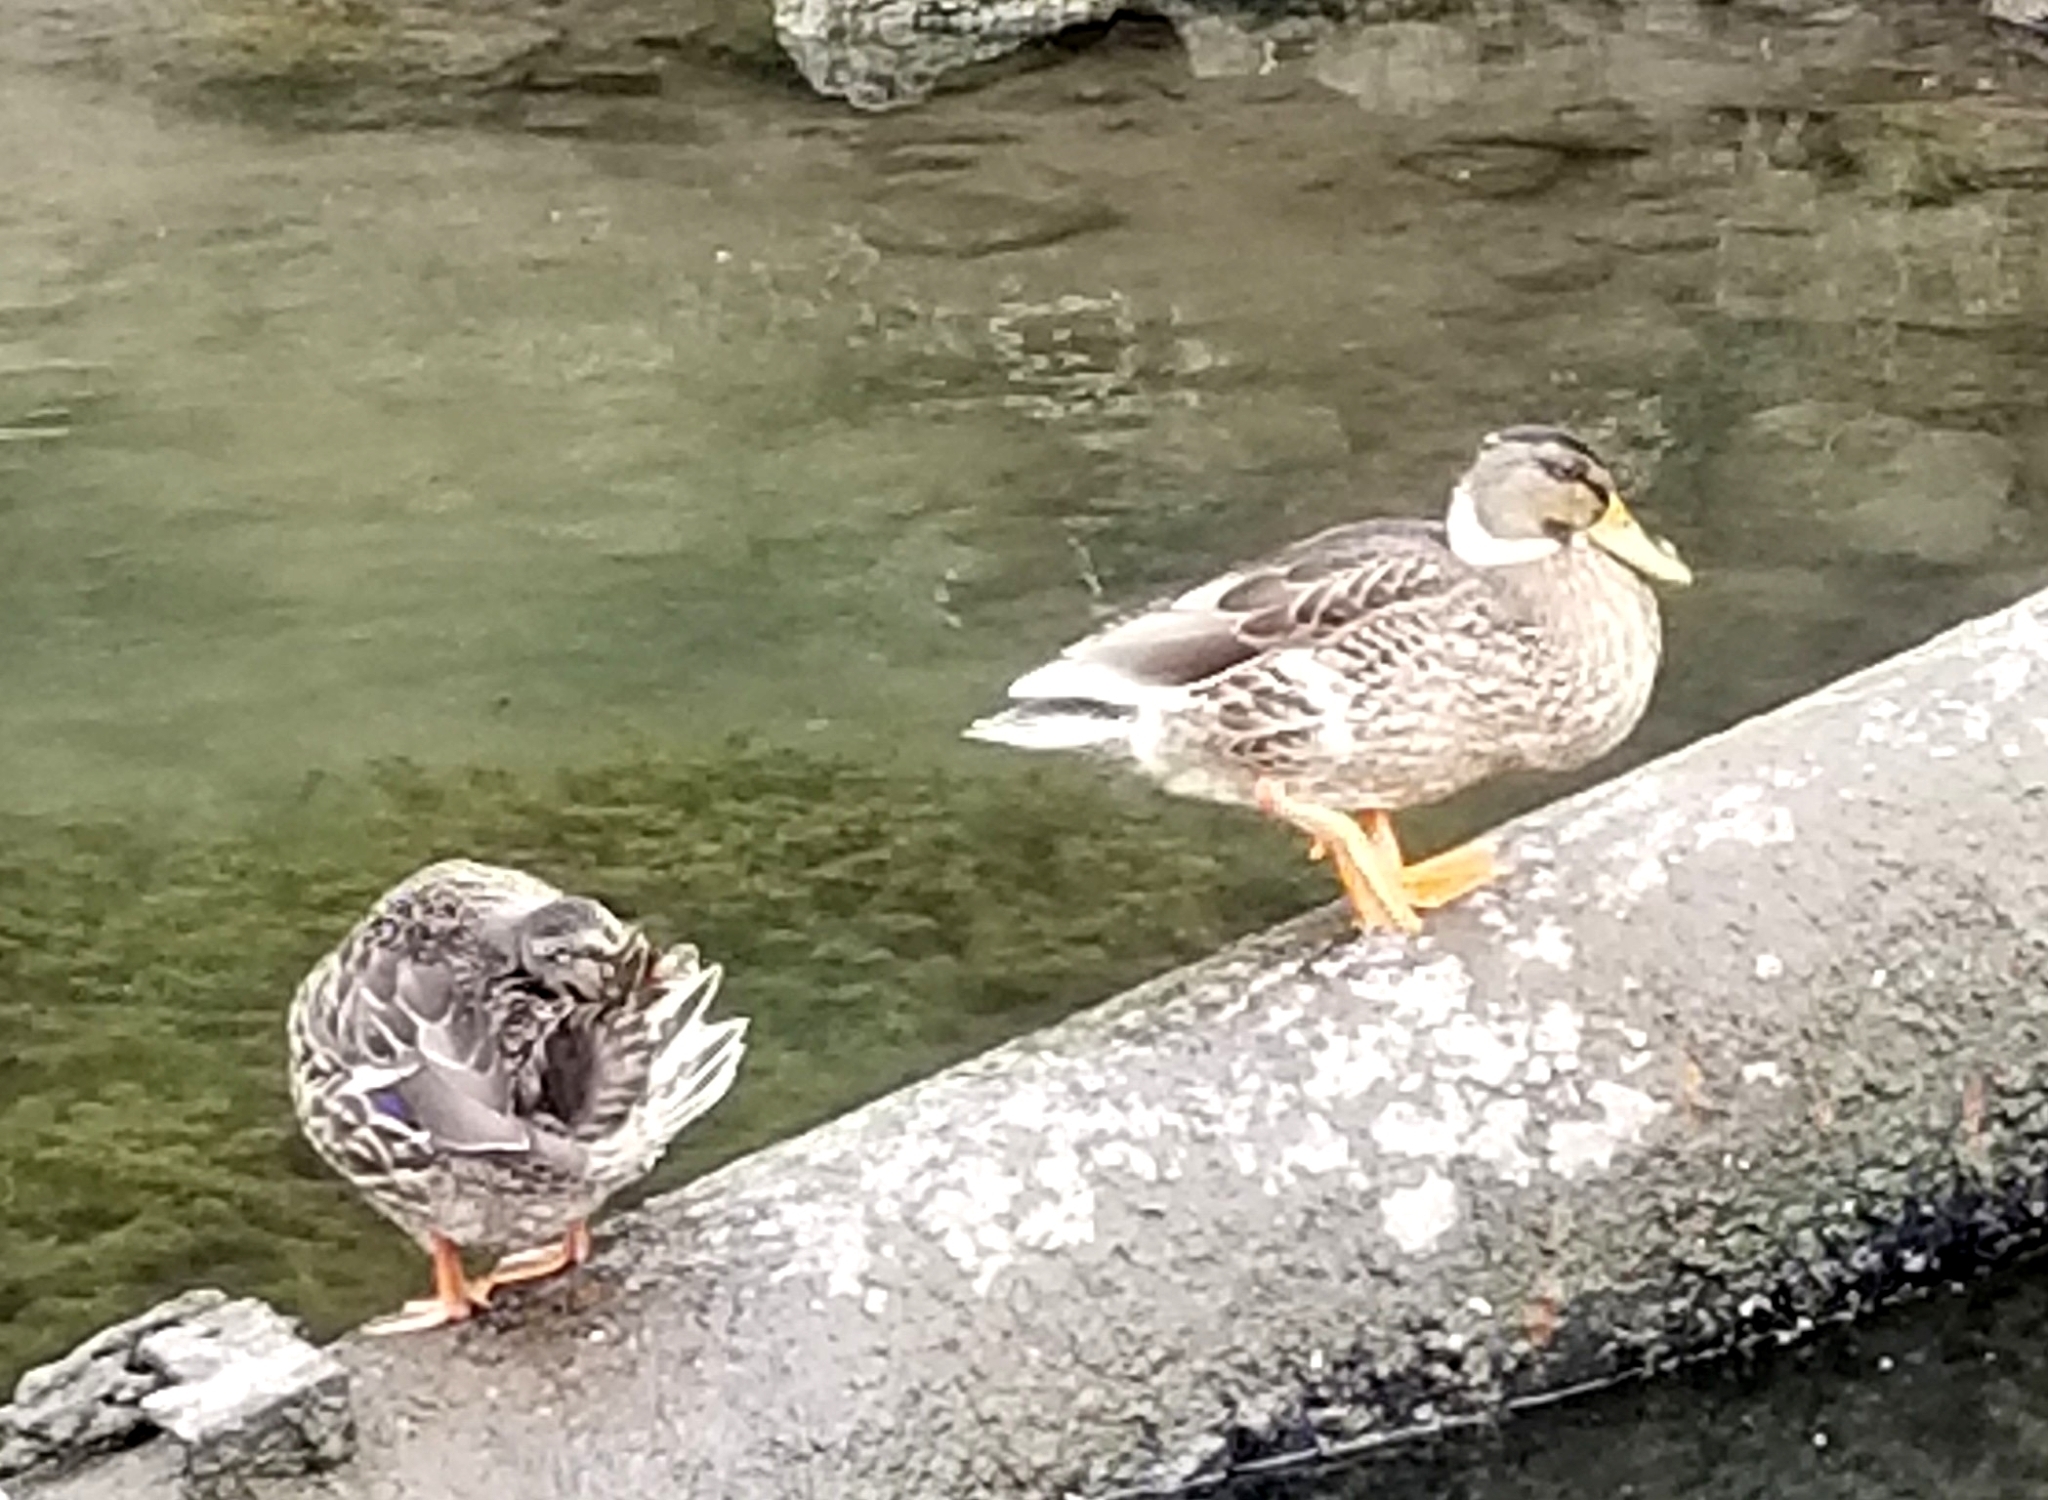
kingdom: Animalia
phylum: Chordata
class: Aves
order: Anseriformes
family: Anatidae
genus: Anas
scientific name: Anas platyrhynchos
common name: Mallard
